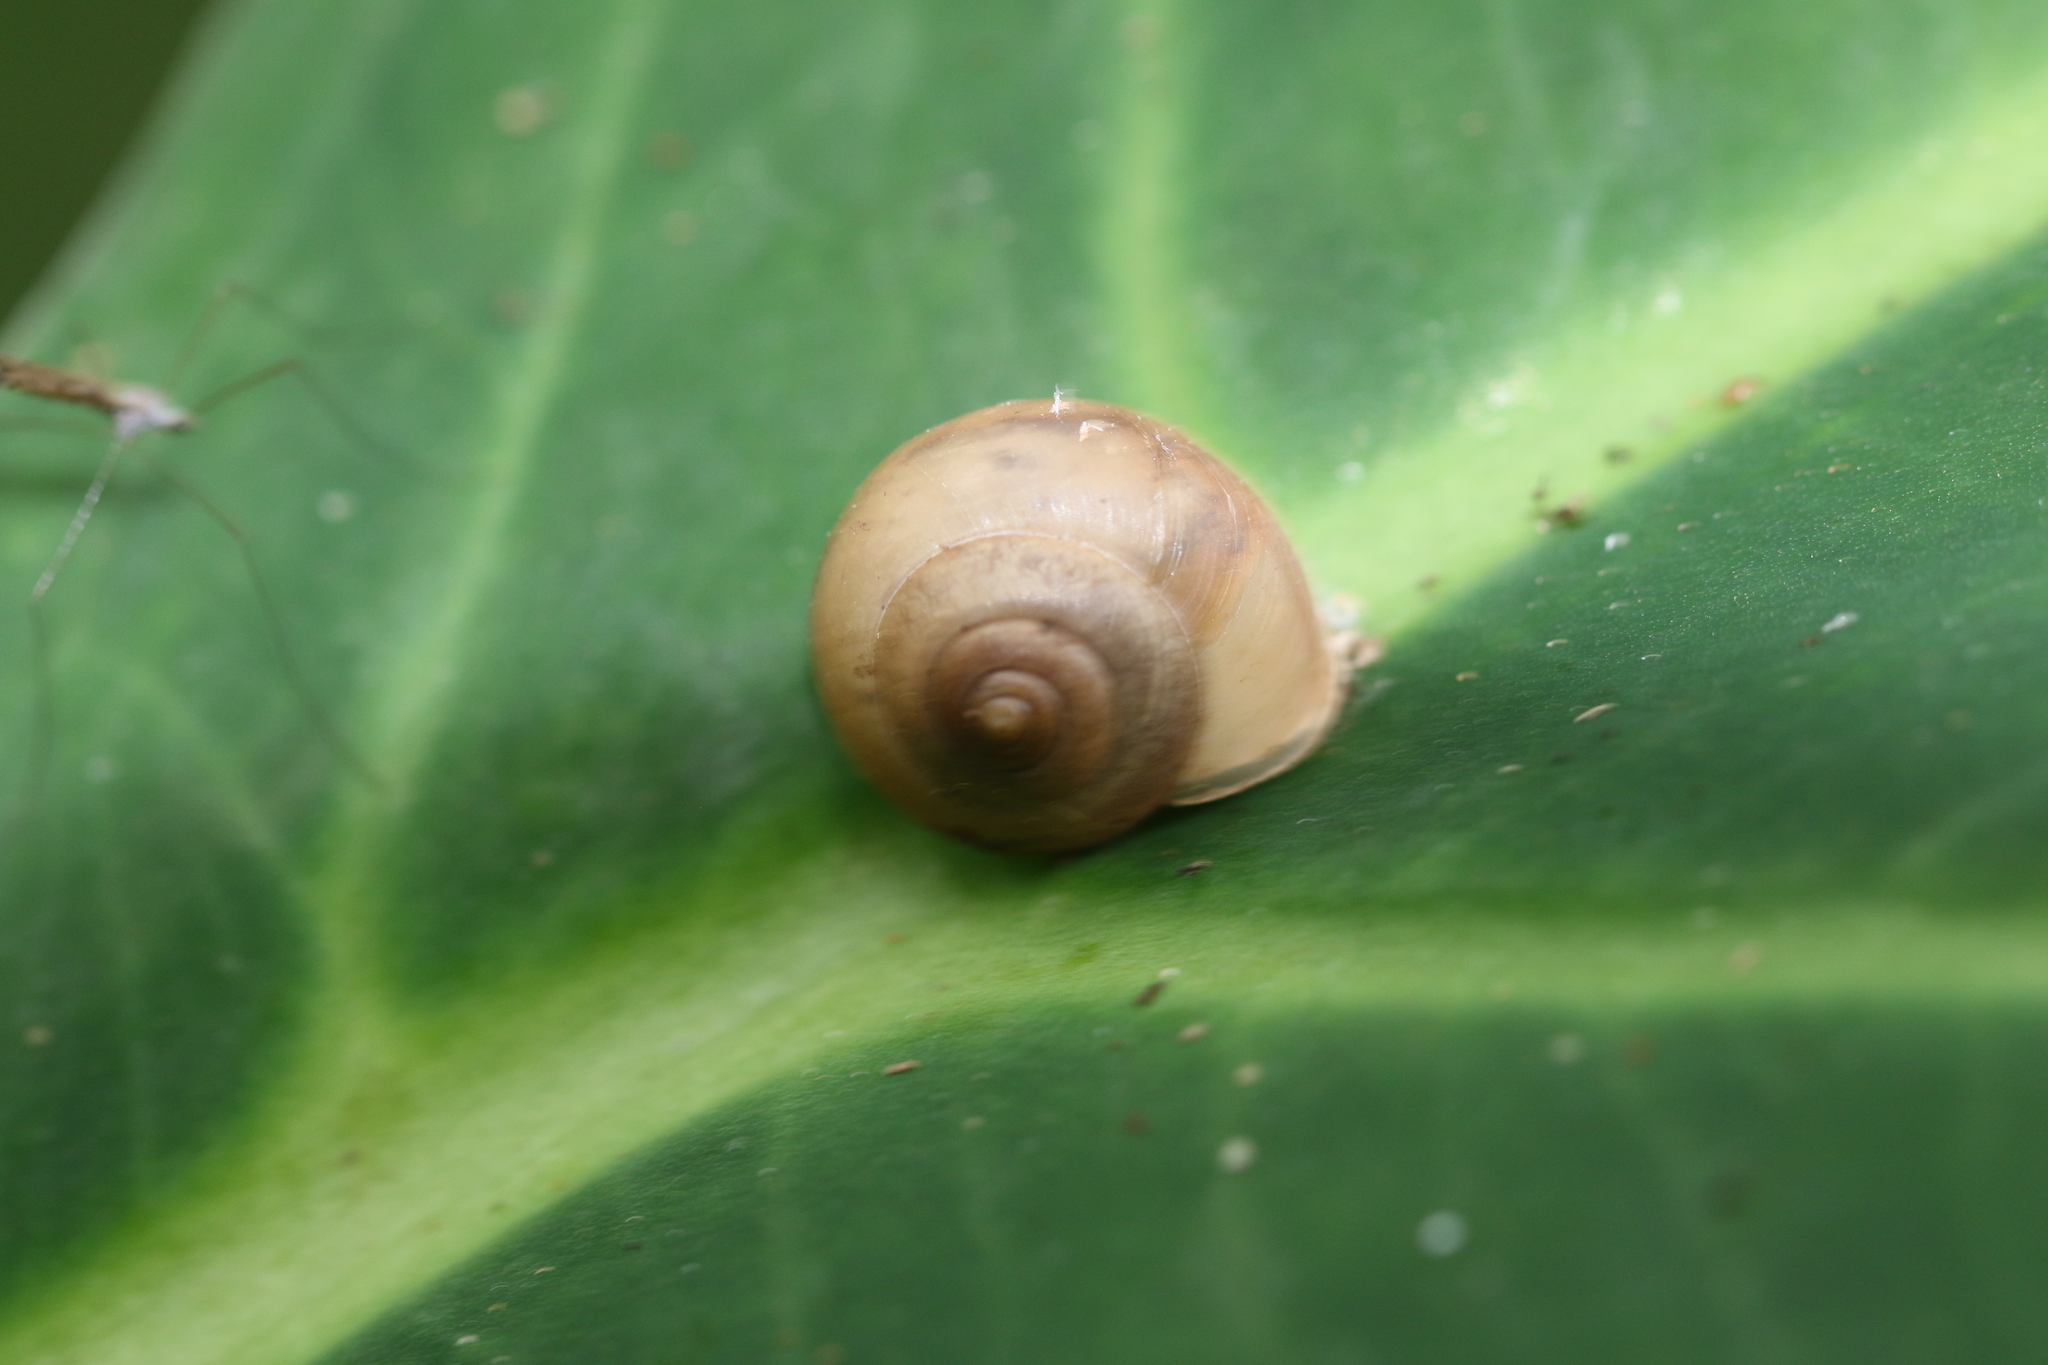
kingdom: Animalia
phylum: Mollusca
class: Gastropoda
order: Stylommatophora
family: Camaenidae
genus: Bradybaena
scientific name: Bradybaena similaris
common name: Asian trampsnail
